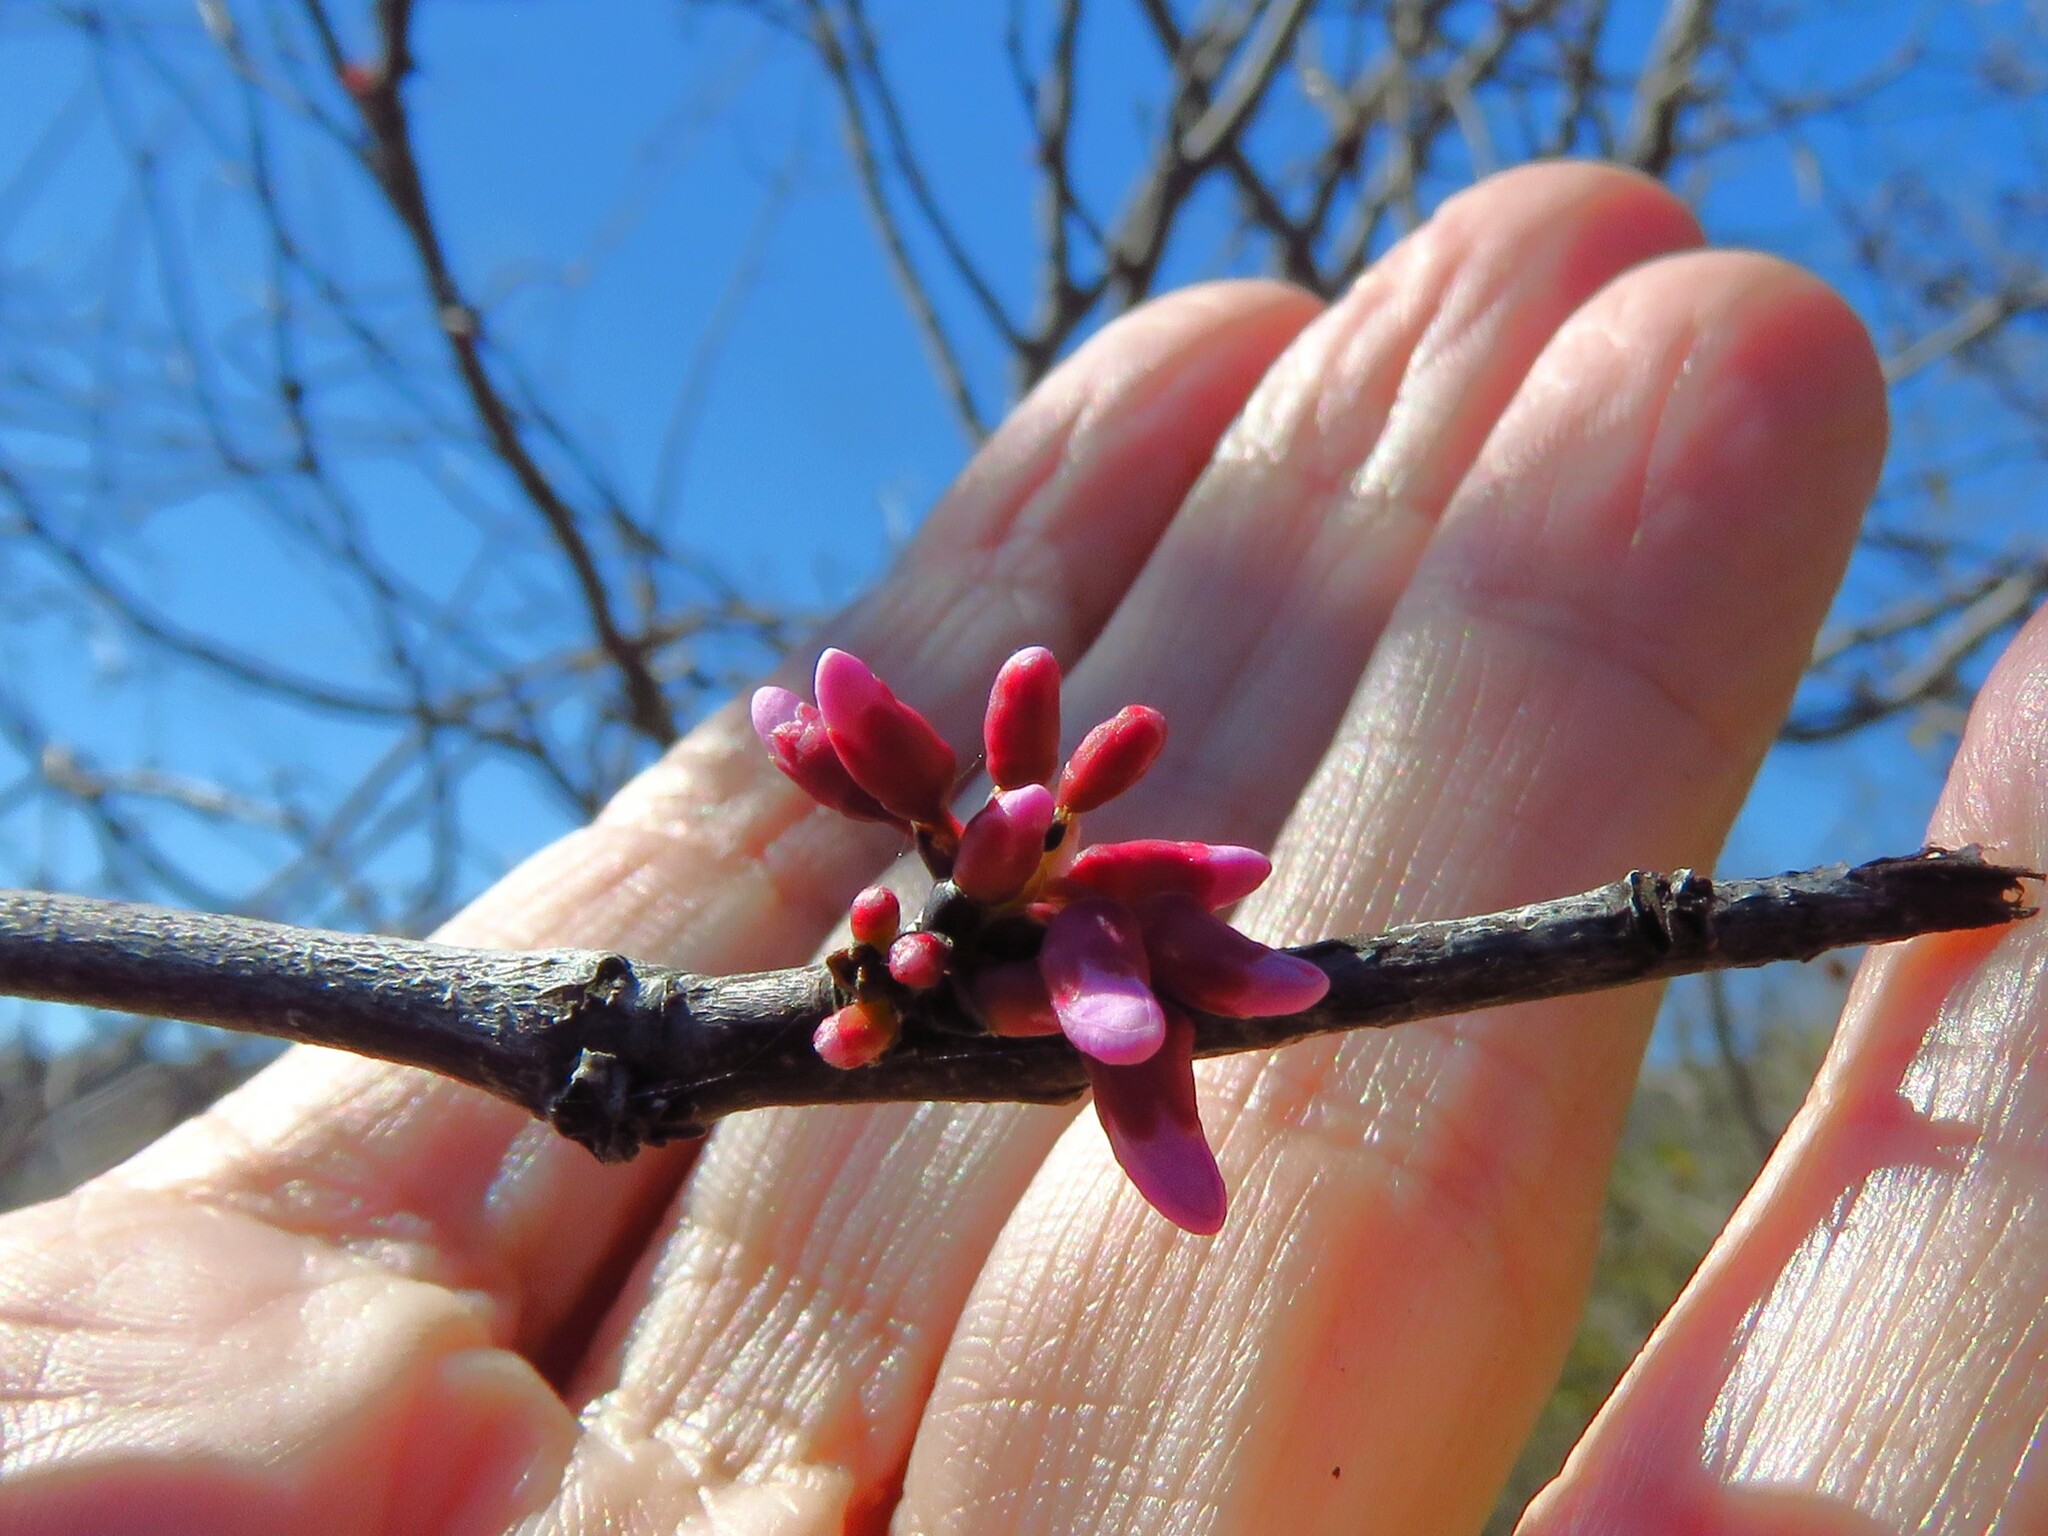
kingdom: Plantae
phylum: Tracheophyta
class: Magnoliopsida
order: Fabales
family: Fabaceae
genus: Cercis
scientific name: Cercis canadensis
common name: Eastern redbud
